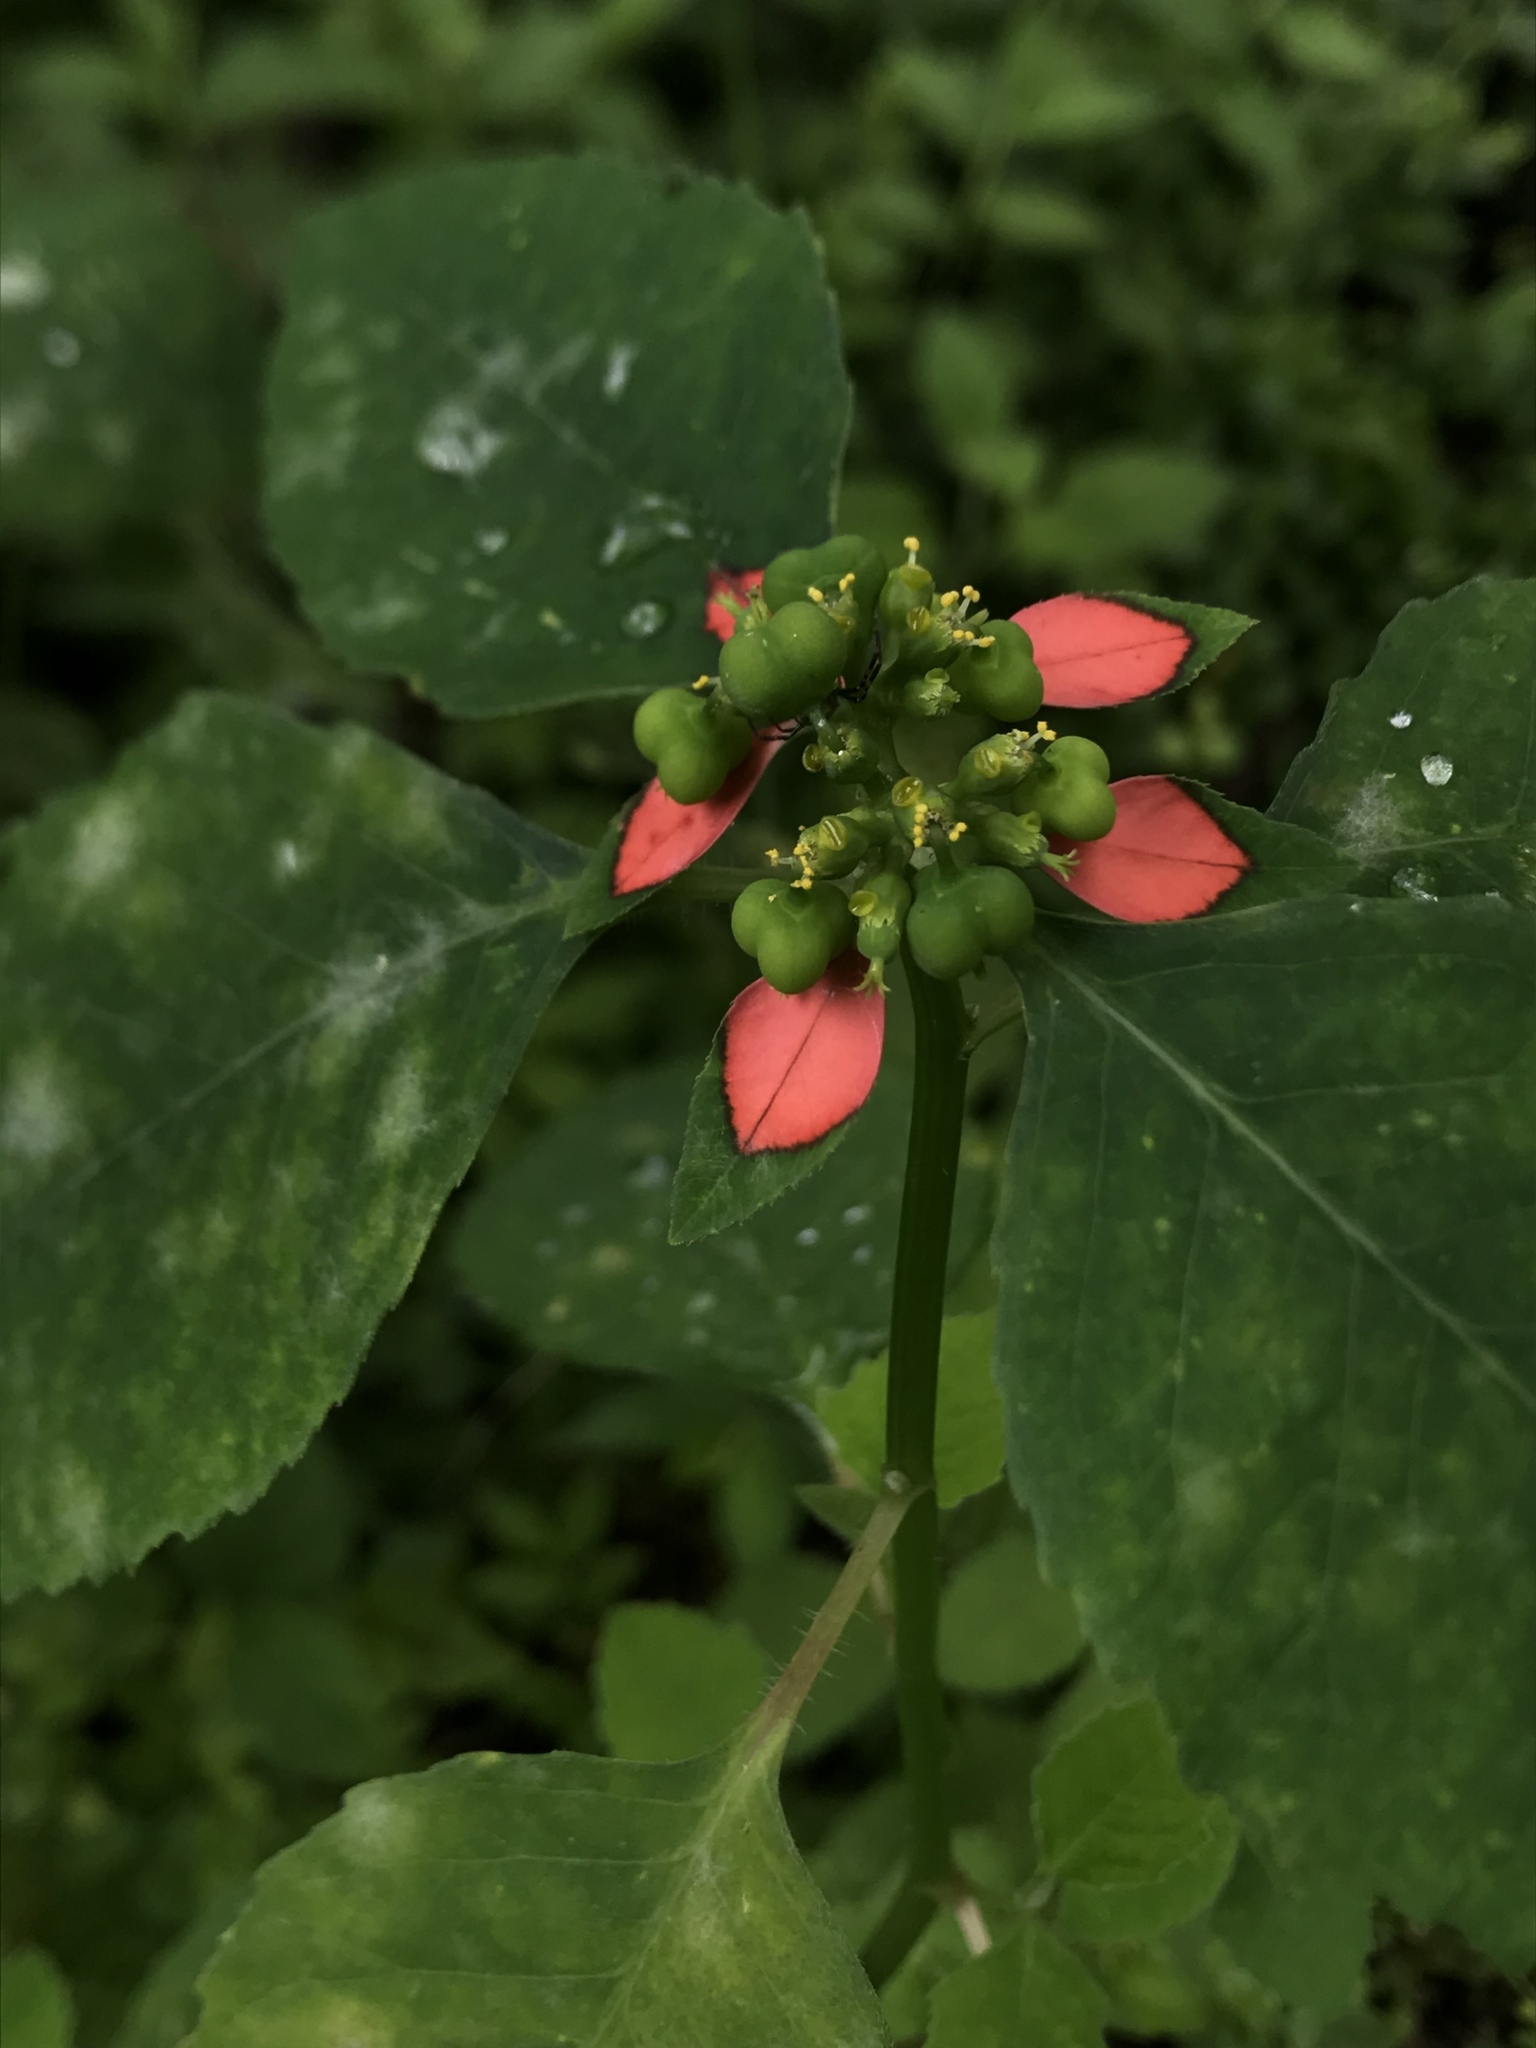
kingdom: Plantae
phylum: Tracheophyta
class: Magnoliopsida
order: Malpighiales
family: Euphorbiaceae
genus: Euphorbia
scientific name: Euphorbia heterophylla
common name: Mexican fireplant
